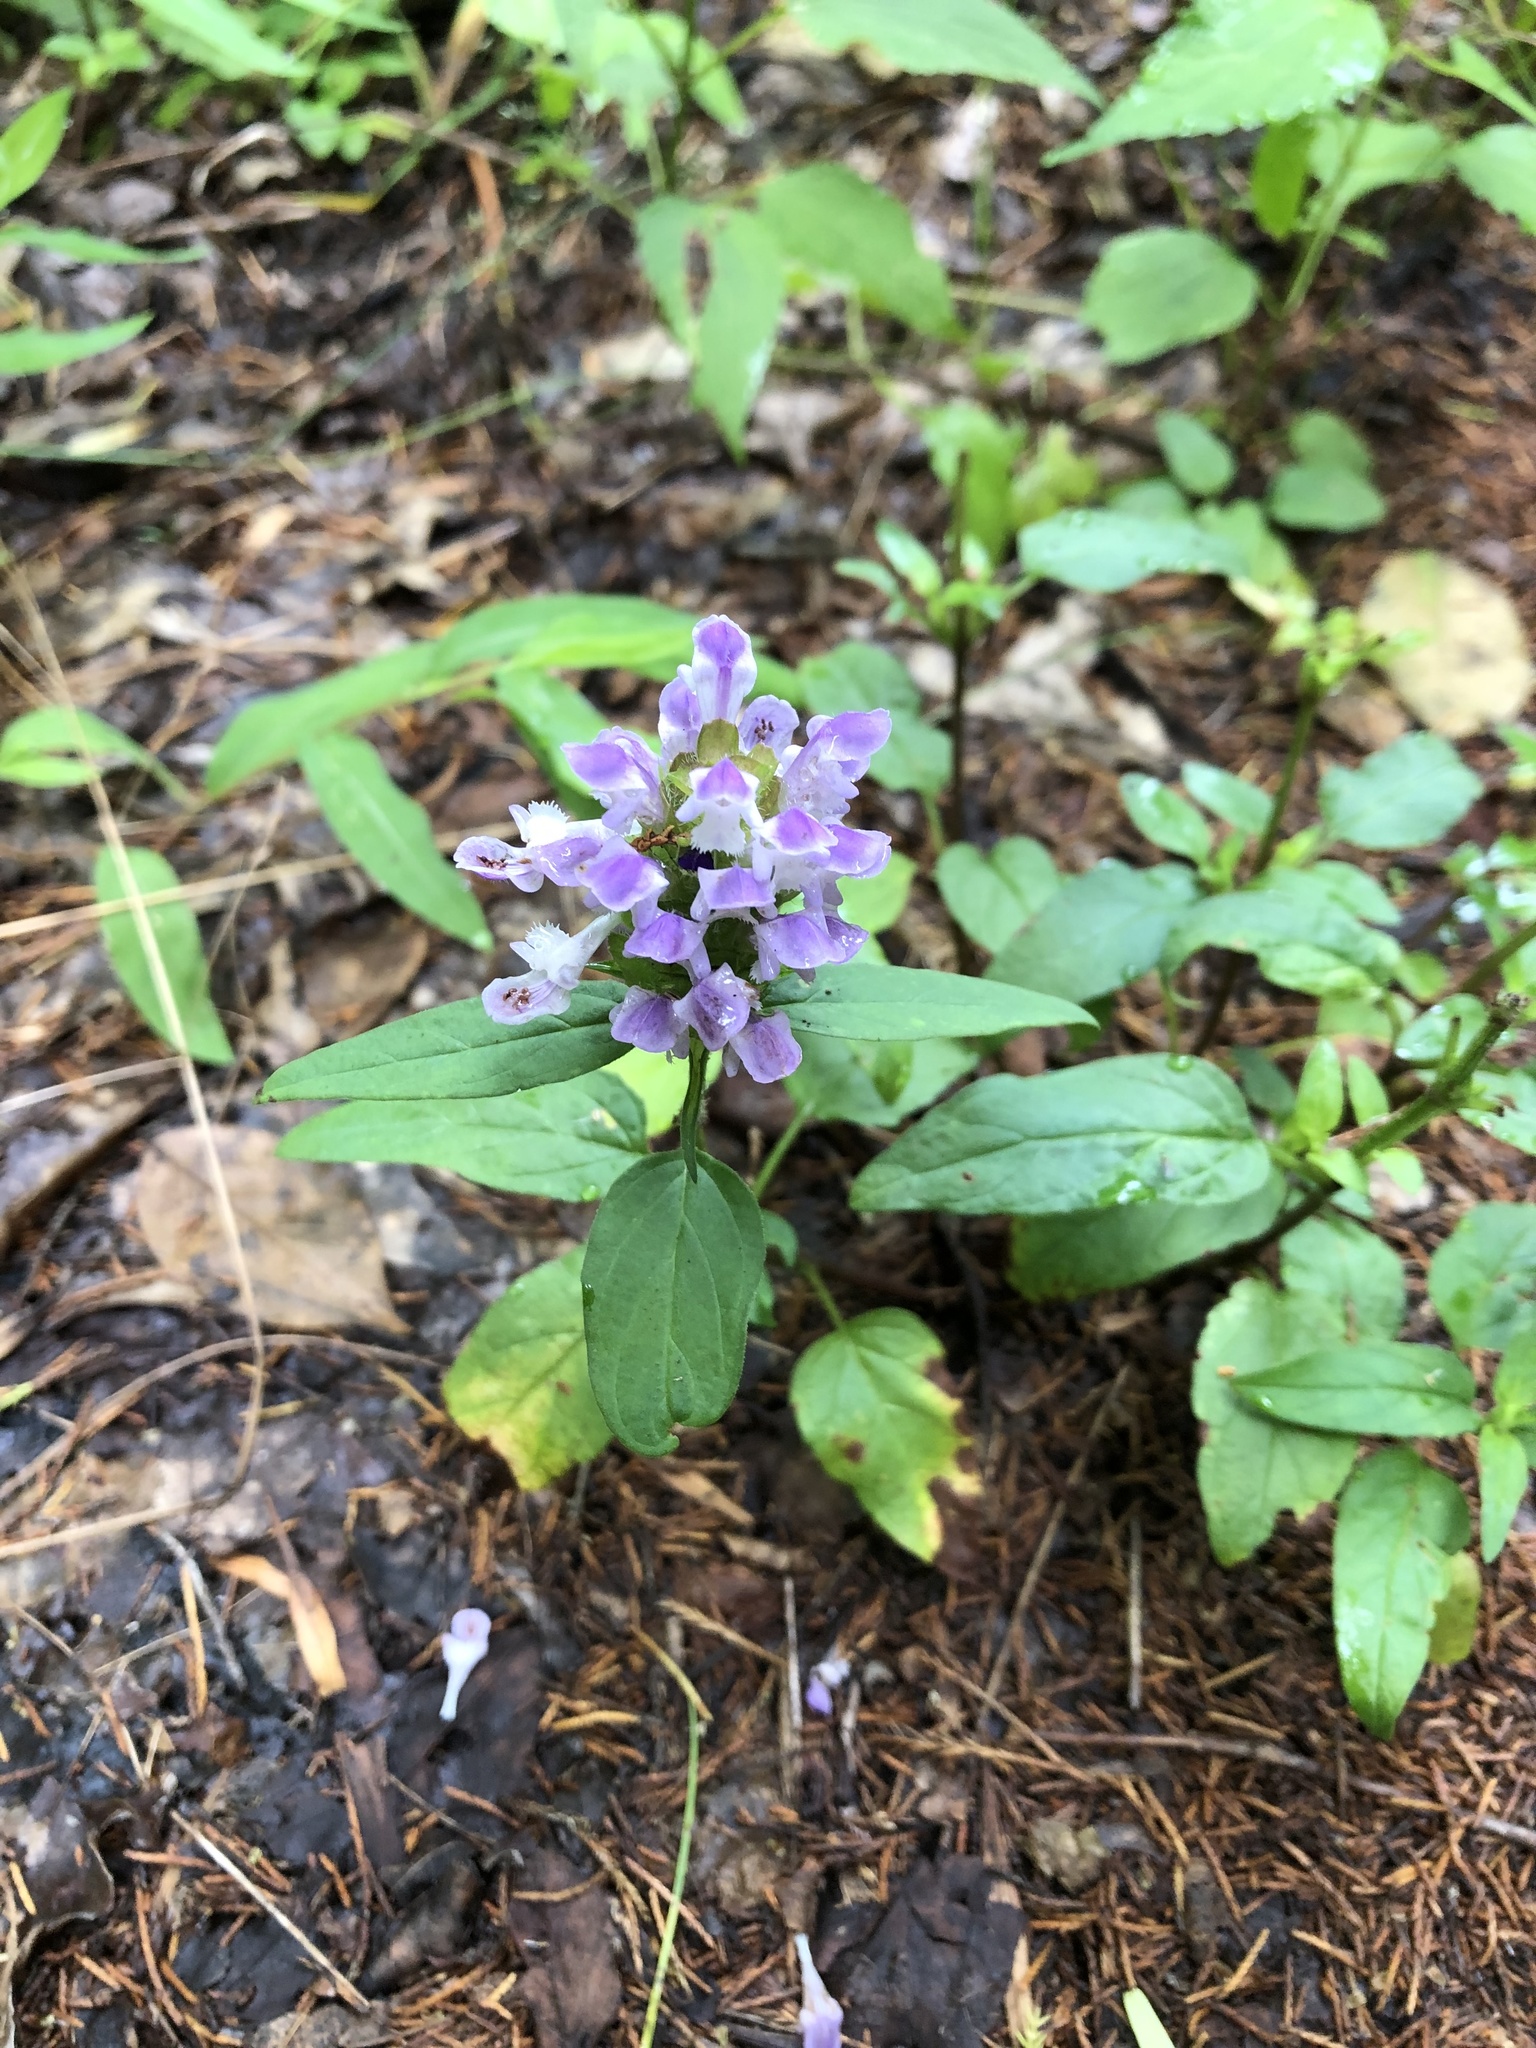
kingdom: Plantae
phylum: Tracheophyta
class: Magnoliopsida
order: Lamiales
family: Lamiaceae
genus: Prunella
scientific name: Prunella vulgaris
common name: Heal-all
